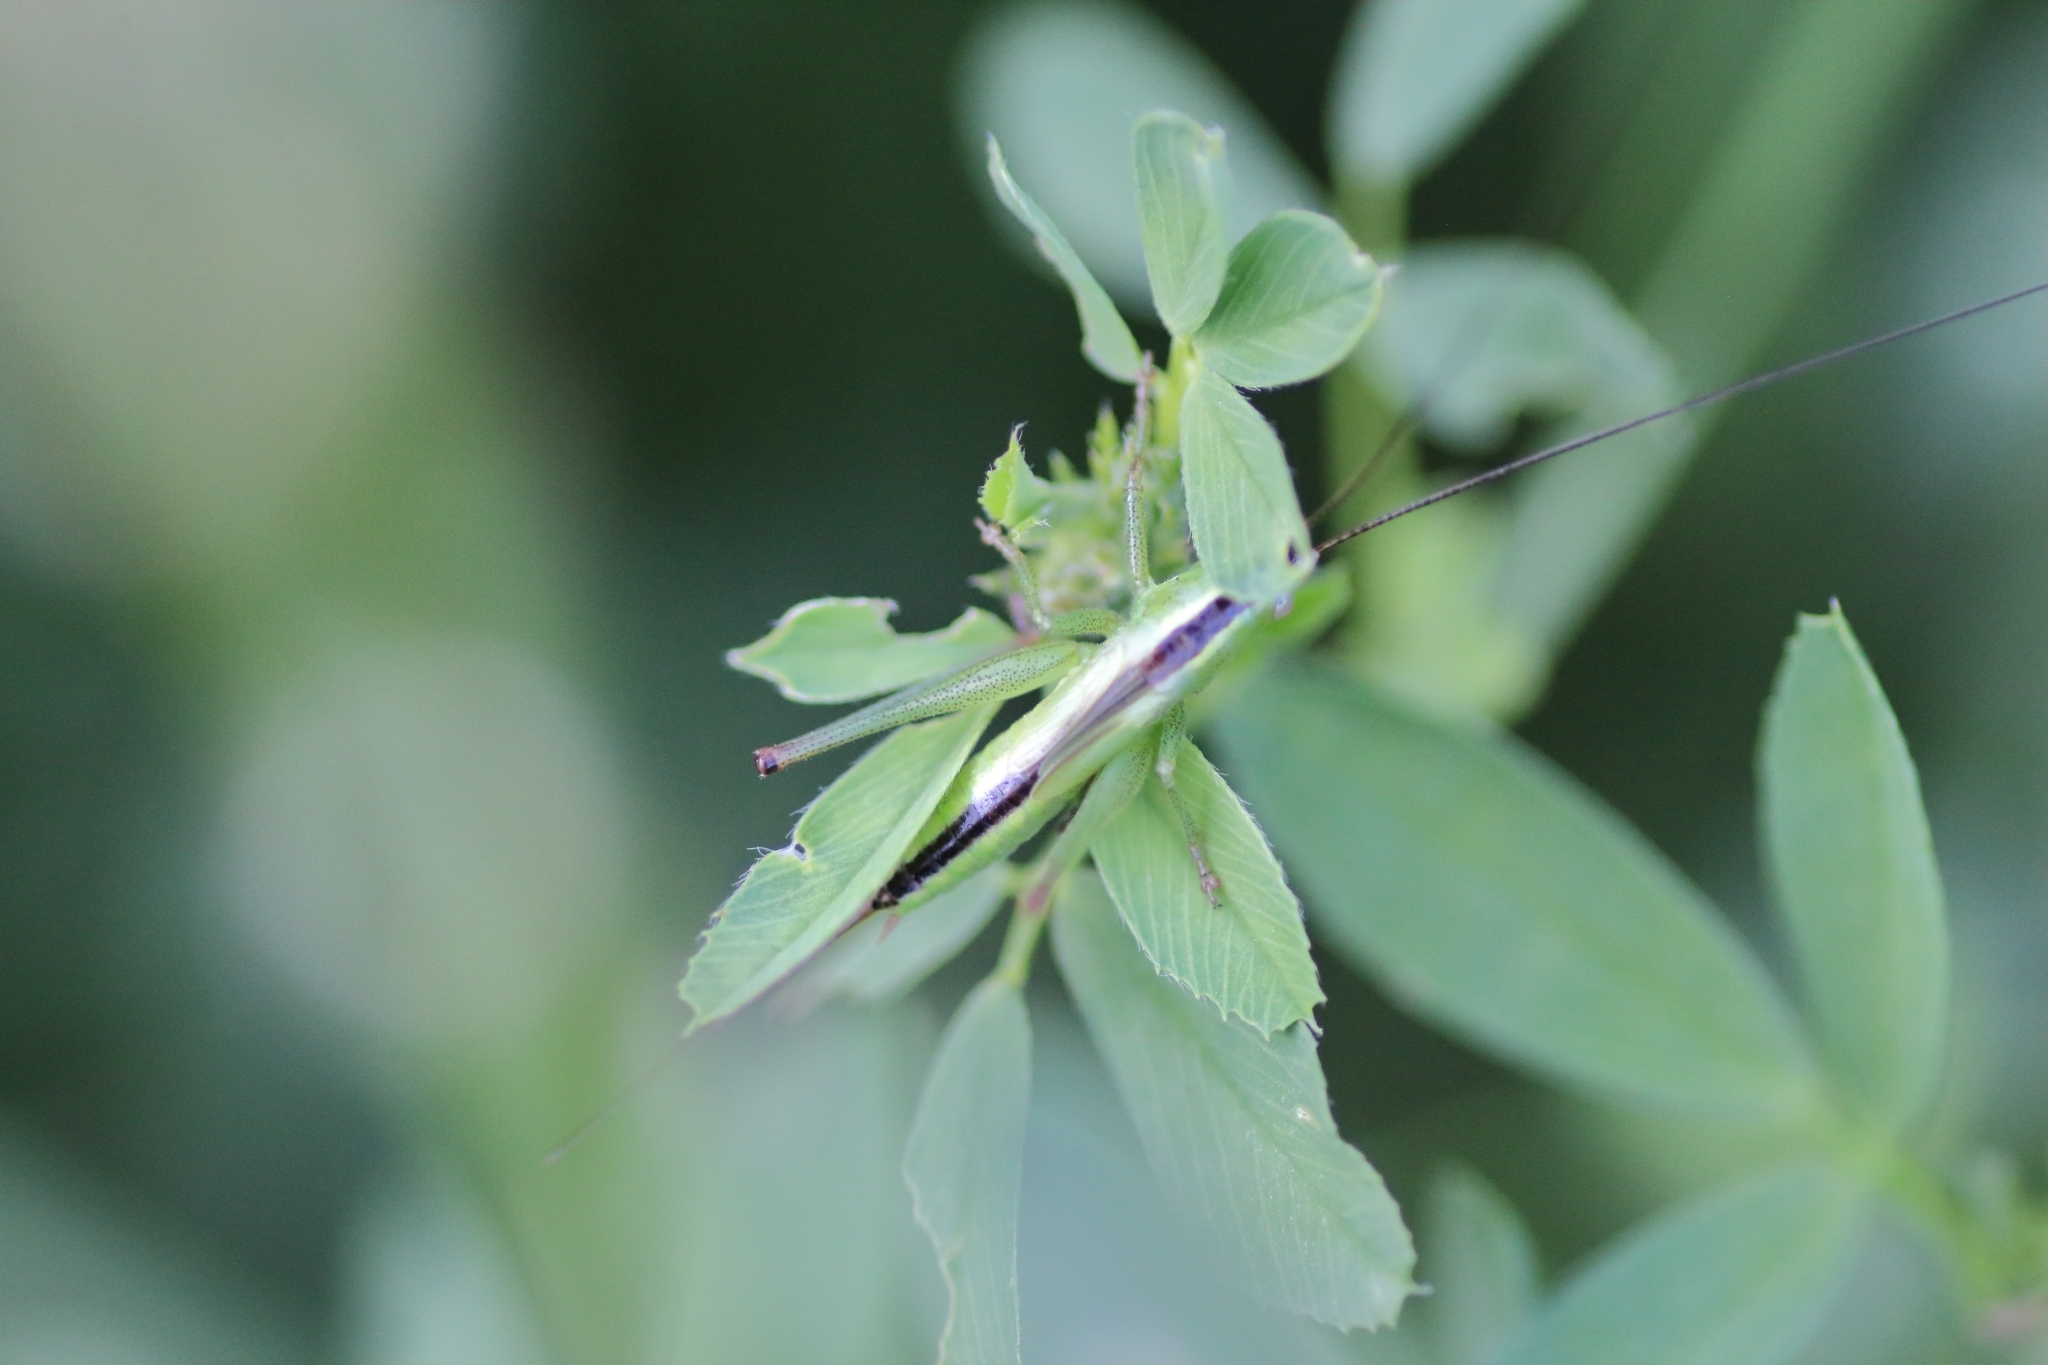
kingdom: Animalia
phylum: Arthropoda
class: Insecta
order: Orthoptera
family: Tettigoniidae
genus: Conocephalus
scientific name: Conocephalus fuscus
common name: Long-winged conehead
